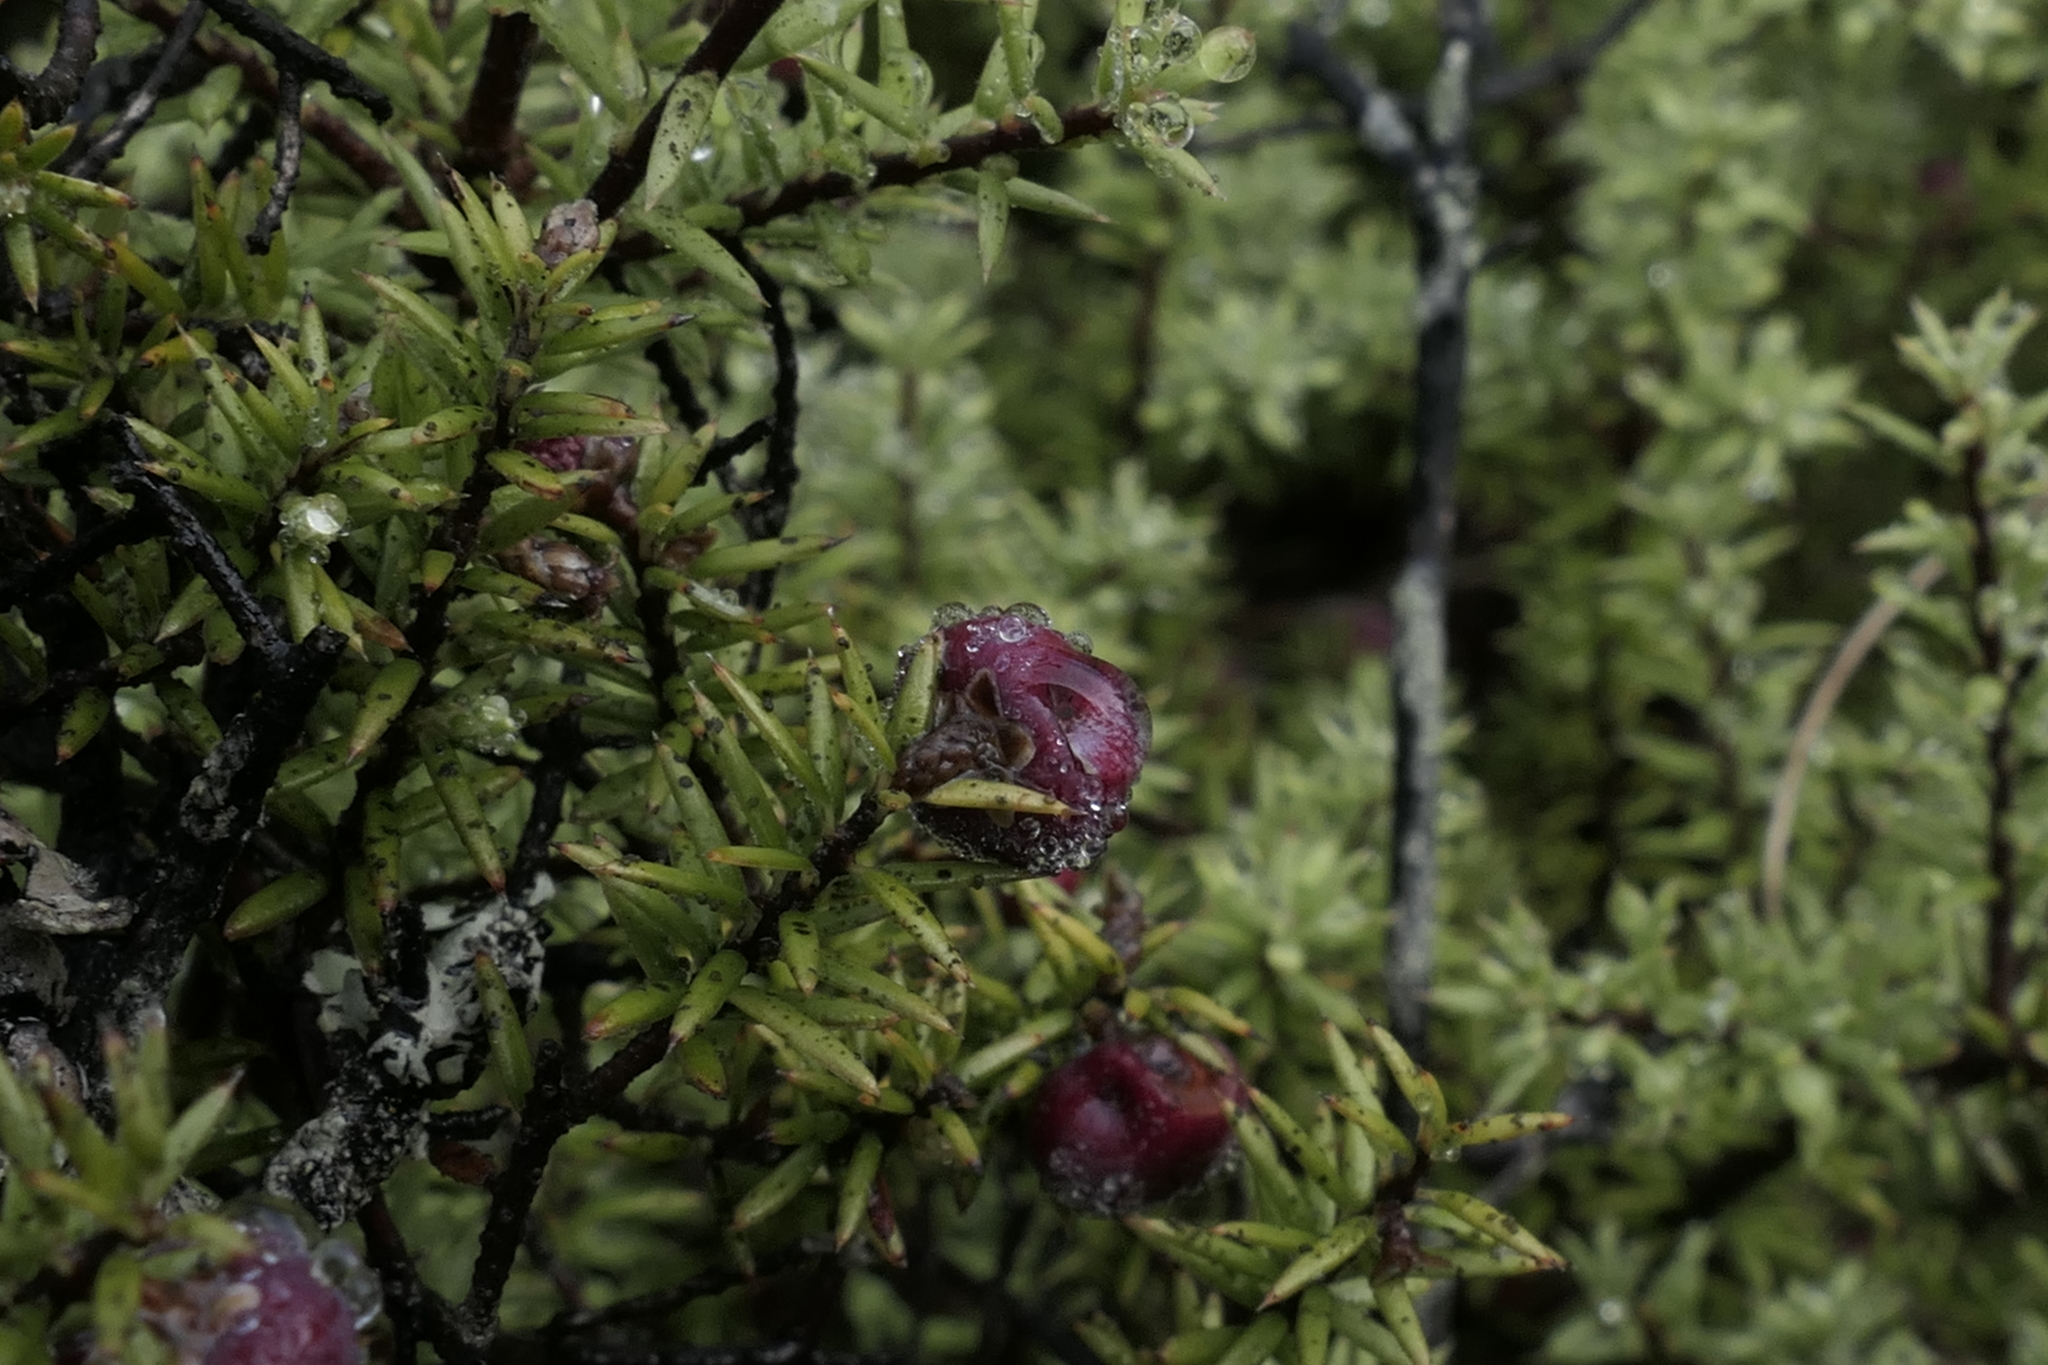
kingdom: Plantae
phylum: Tracheophyta
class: Magnoliopsida
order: Ericales
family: Ericaceae
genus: Leptecophylla
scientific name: Leptecophylla juniperina
